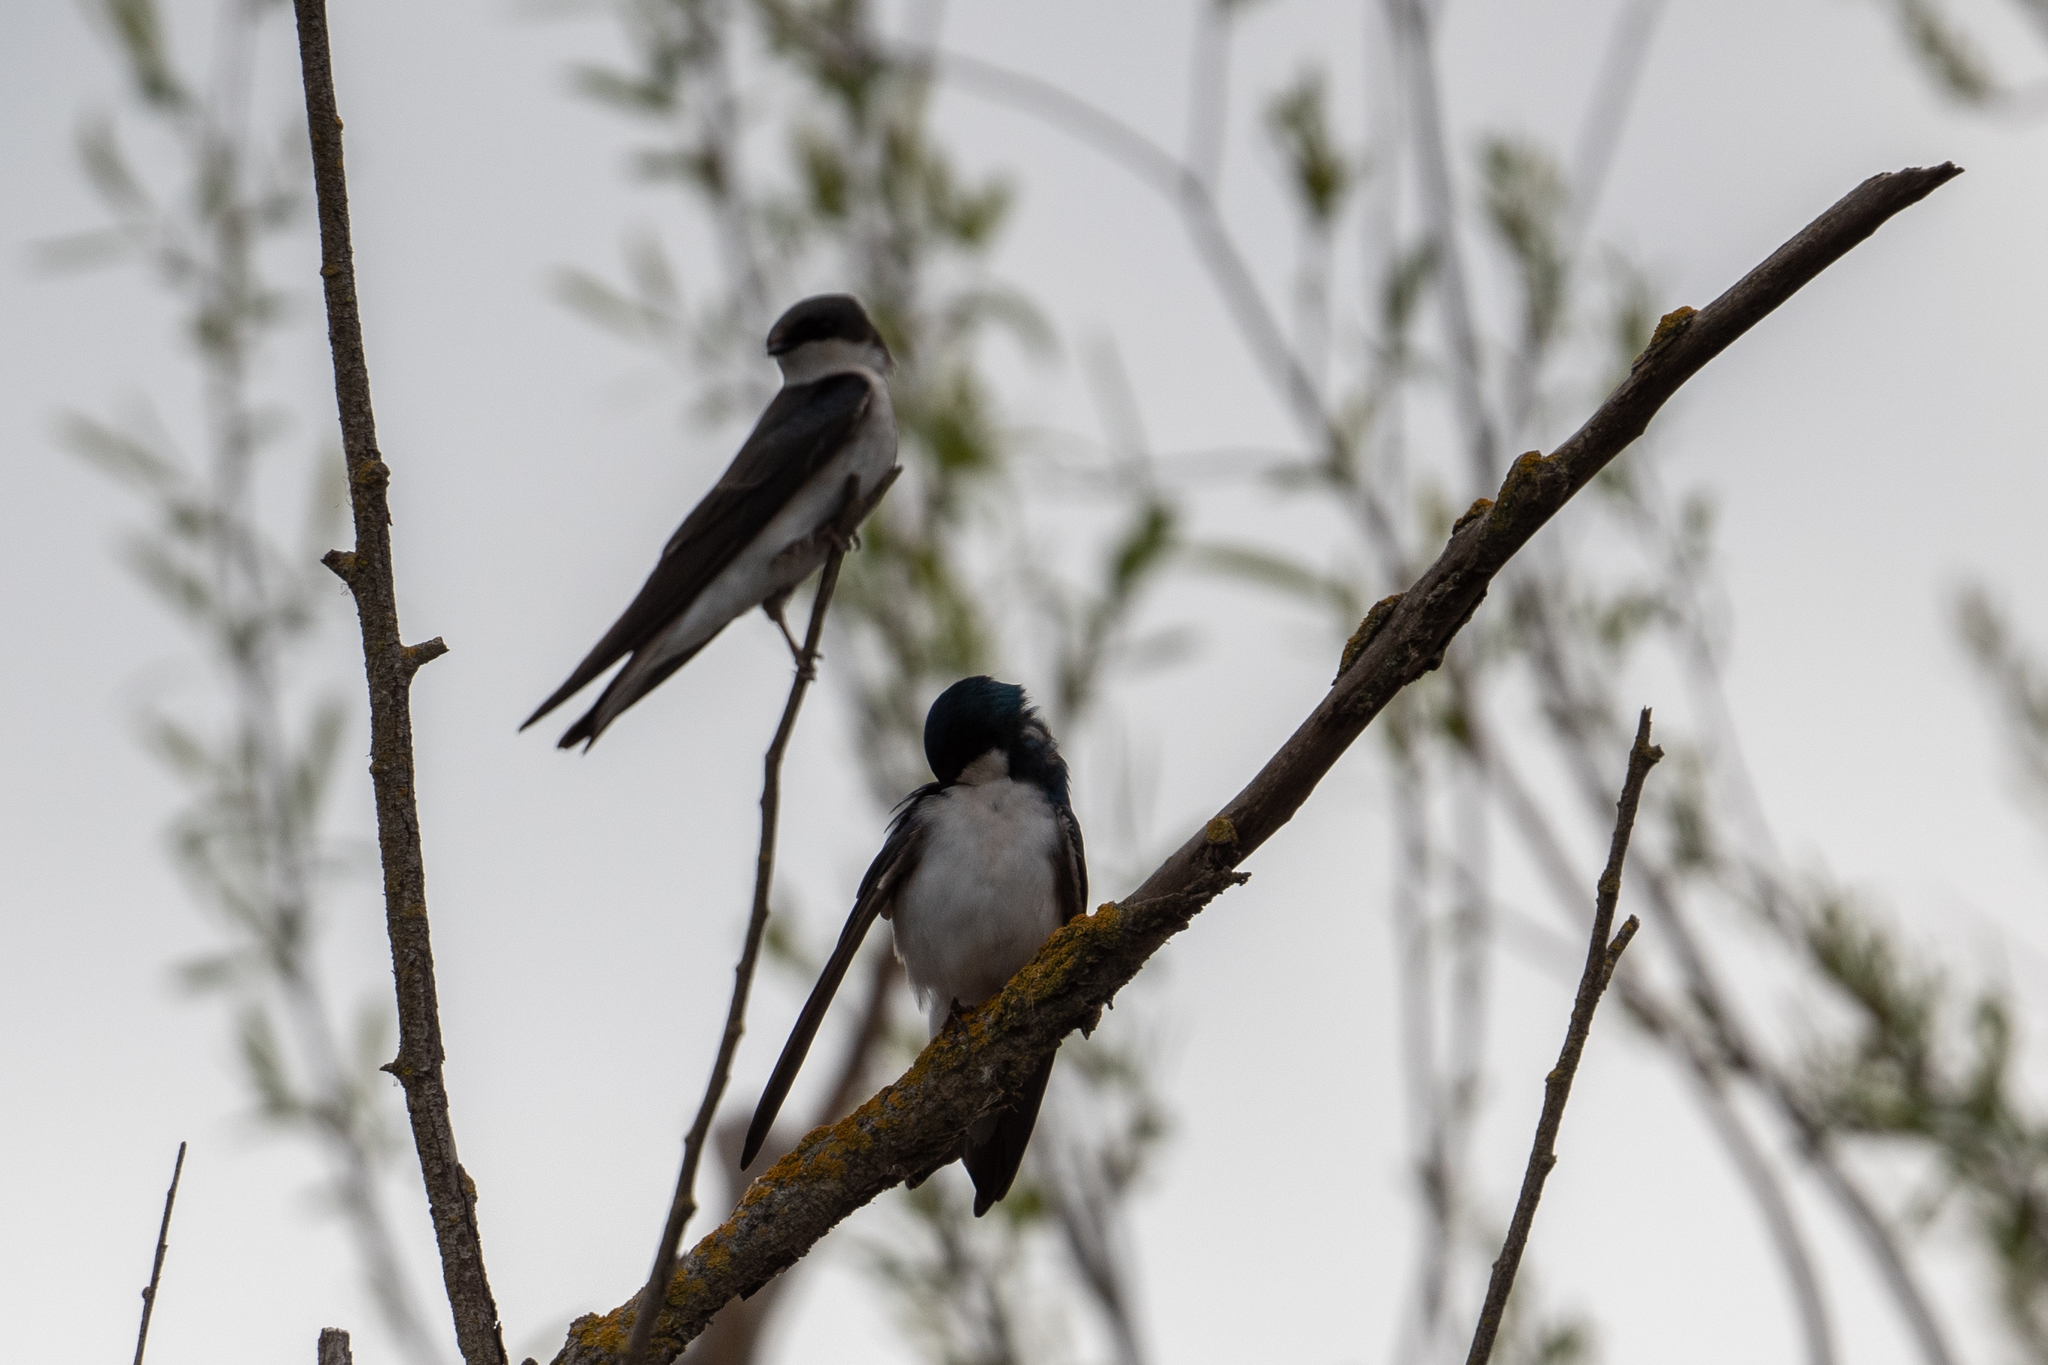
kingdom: Animalia
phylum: Chordata
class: Aves
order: Passeriformes
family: Hirundinidae
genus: Tachycineta
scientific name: Tachycineta bicolor
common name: Tree swallow
